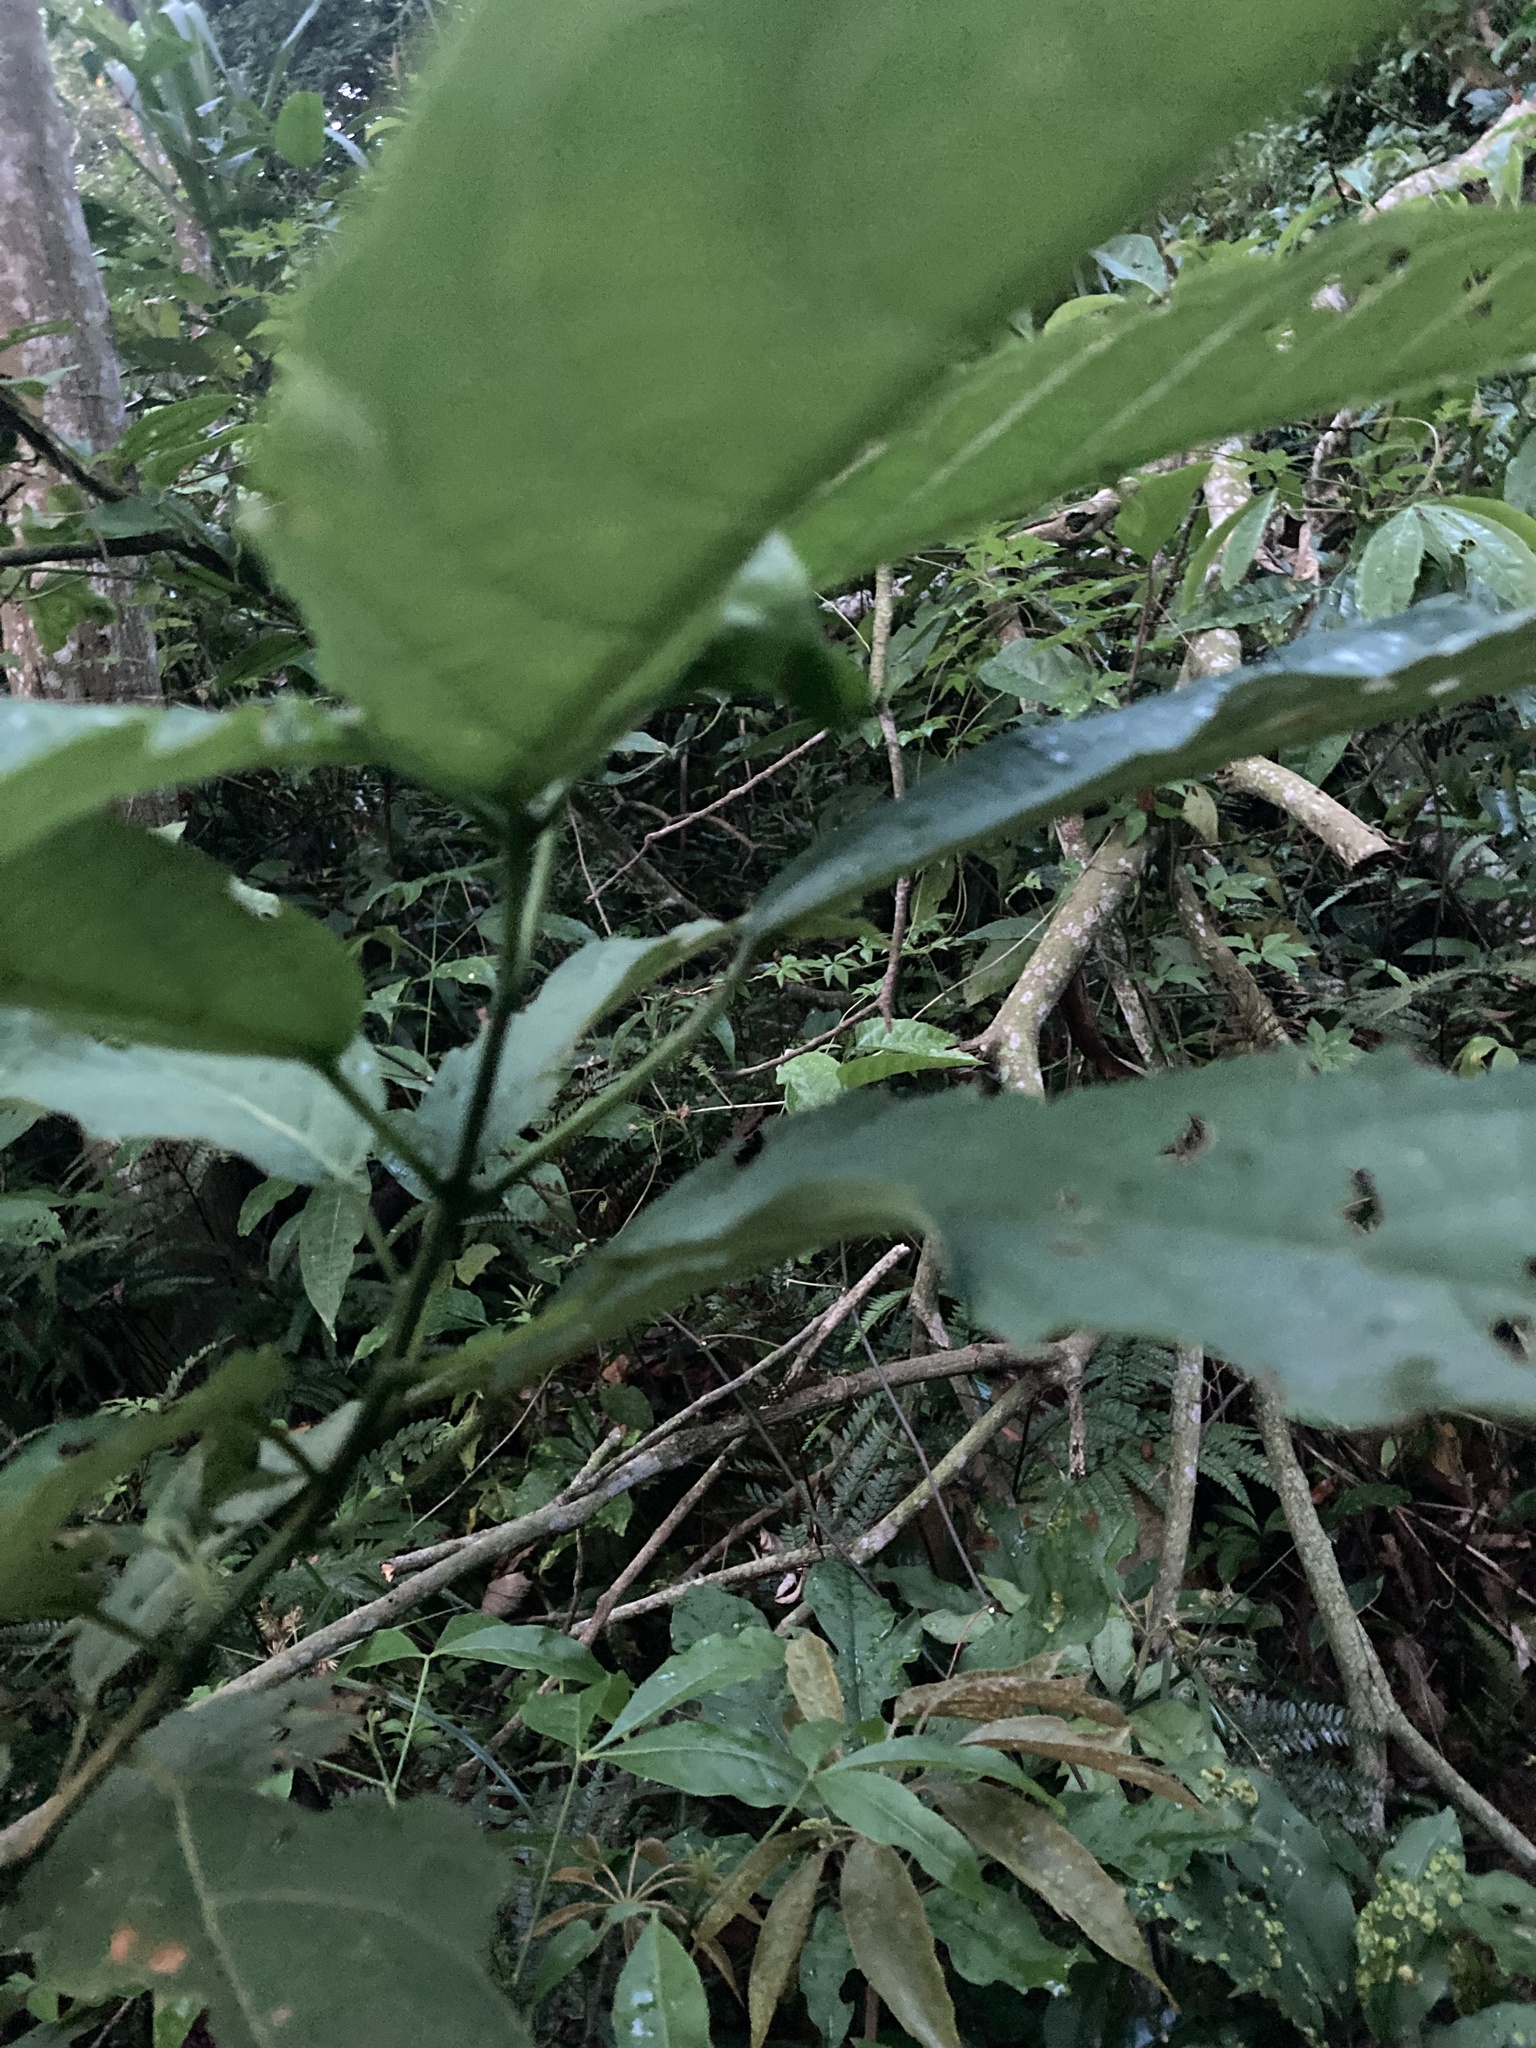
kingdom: Plantae
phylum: Tracheophyta
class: Magnoliopsida
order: Lamiales
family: Lamiaceae
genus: Clerodendrum
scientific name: Clerodendrum cyrtophyllum
